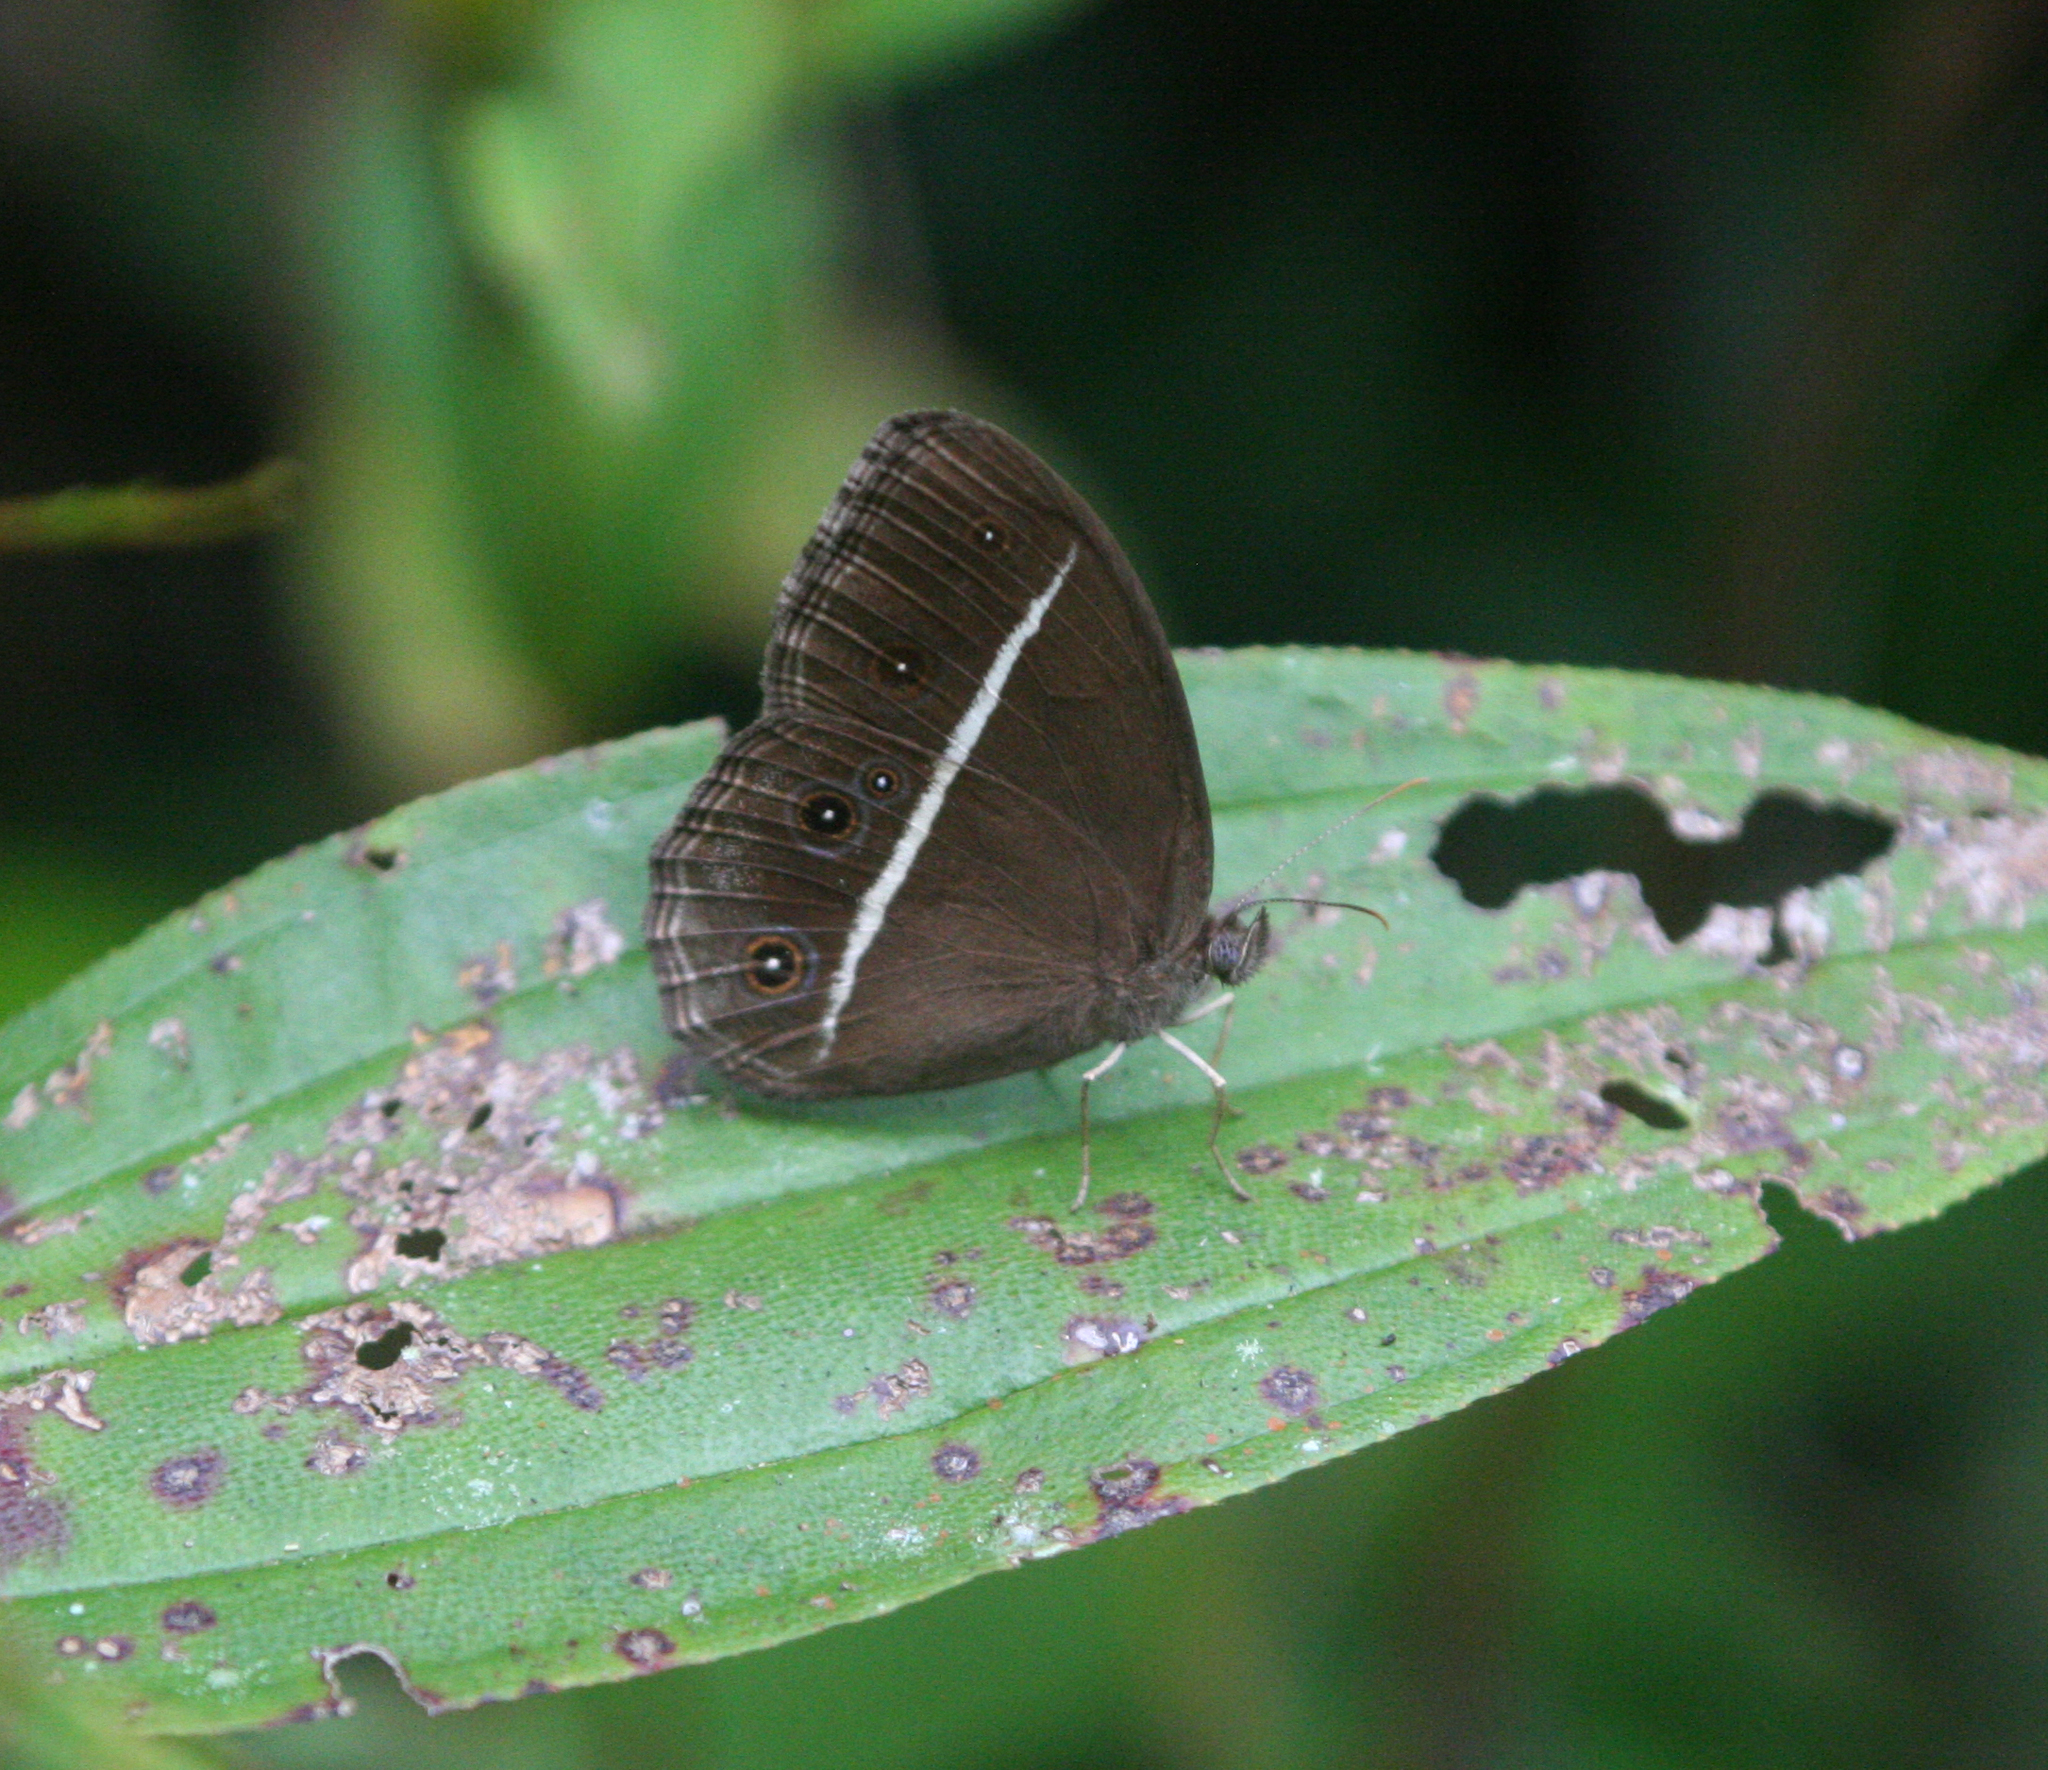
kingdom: Animalia
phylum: Arthropoda
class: Insecta
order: Lepidoptera
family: Nymphalidae
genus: Orsotriaena
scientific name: Orsotriaena medus
